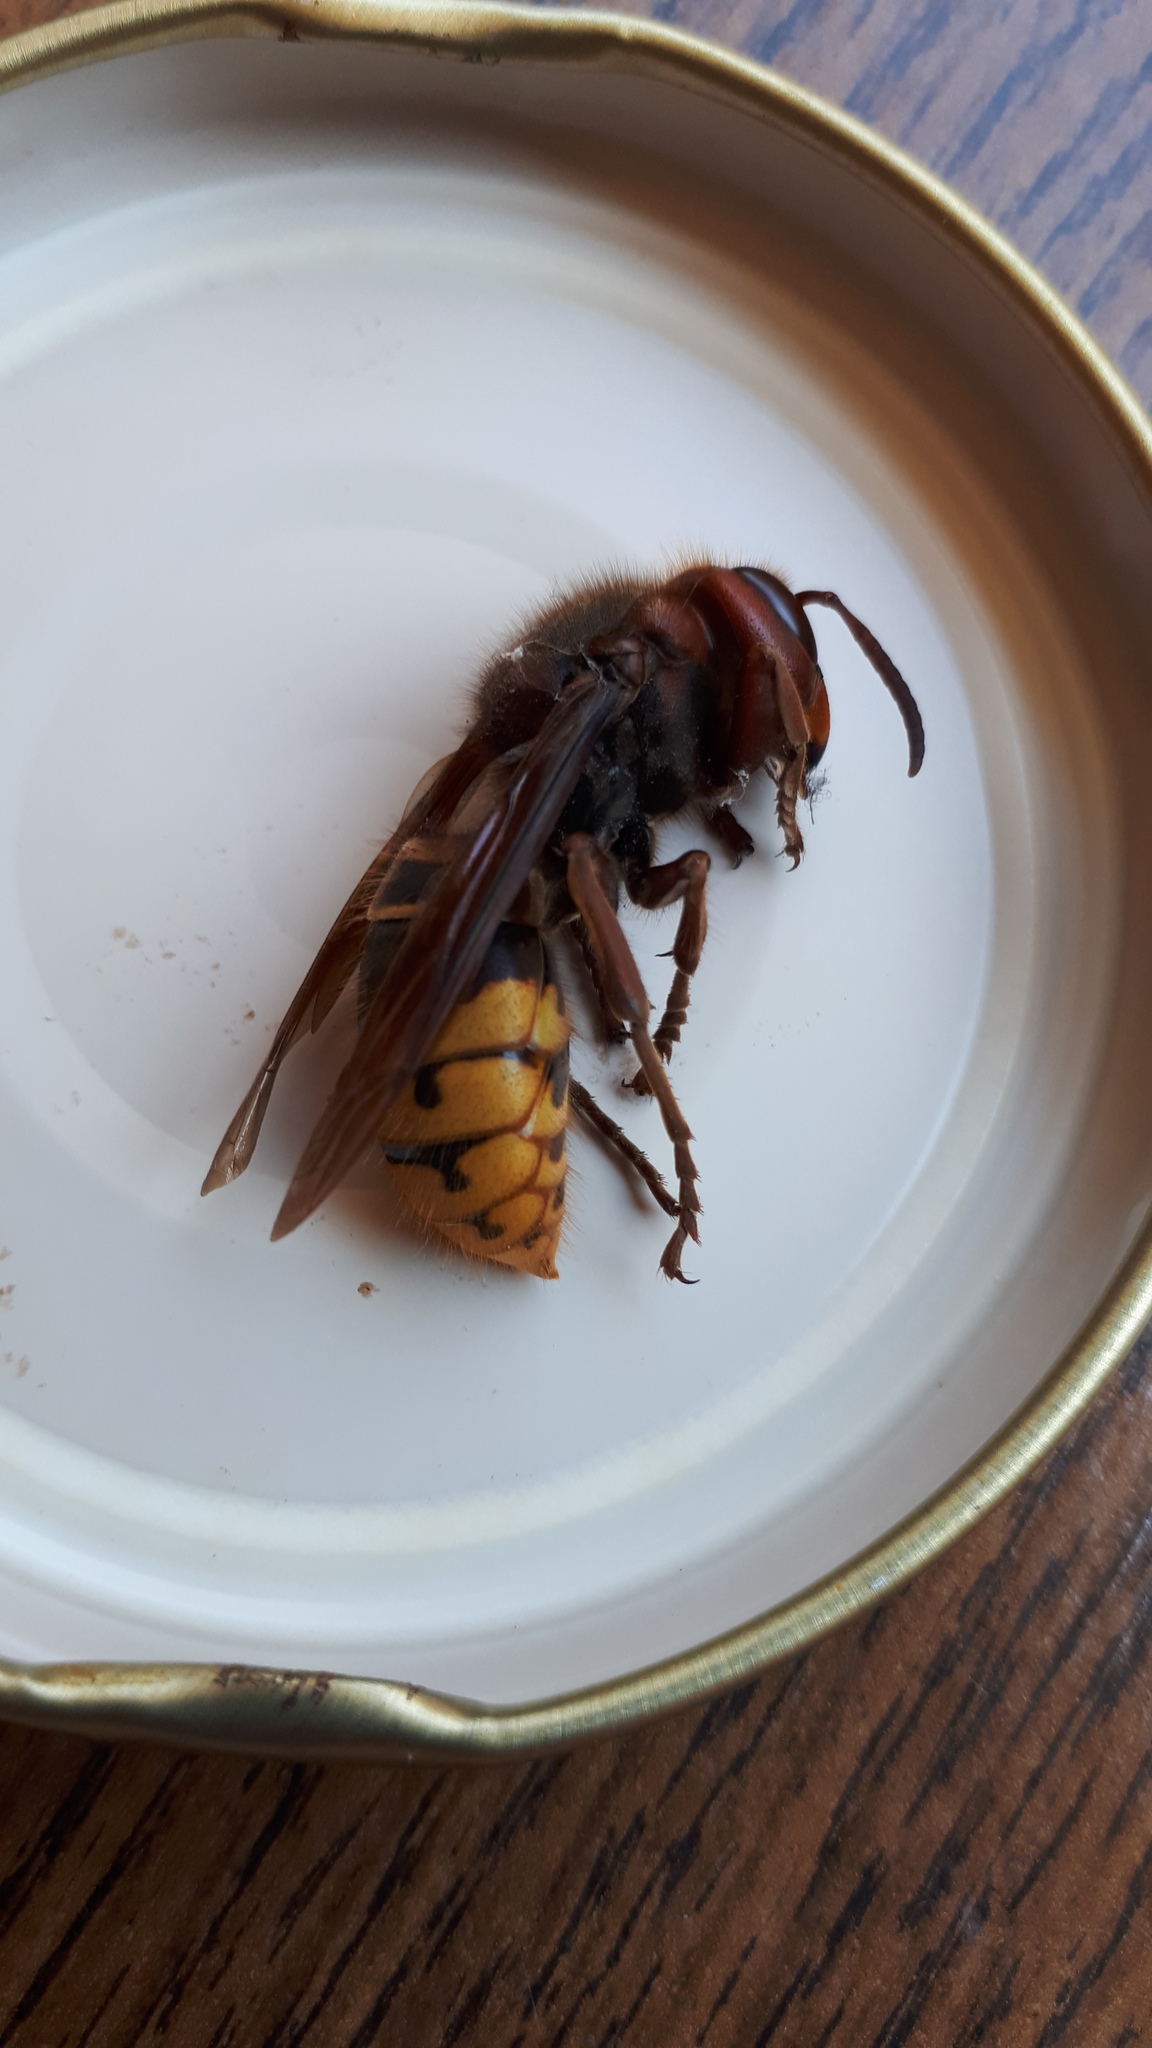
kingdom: Animalia
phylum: Arthropoda
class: Insecta
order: Hymenoptera
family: Vespidae
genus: Vespa
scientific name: Vespa crabro
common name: Hornet
